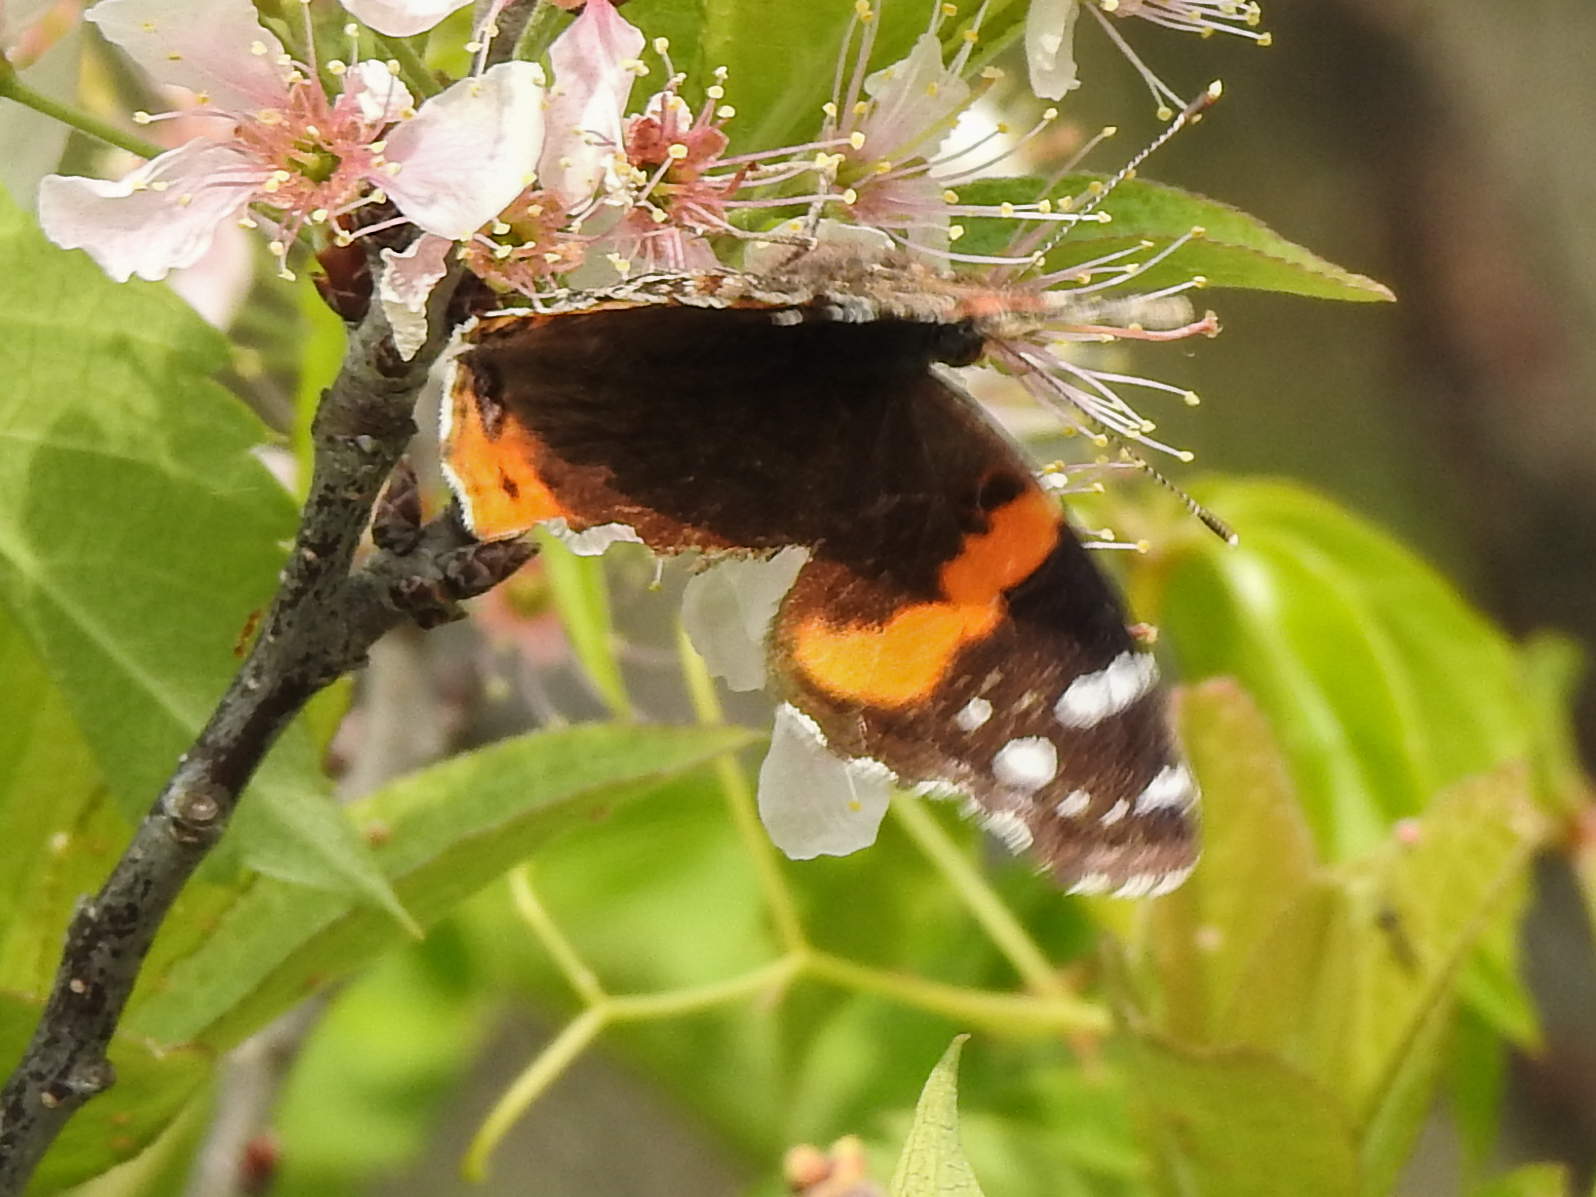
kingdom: Animalia
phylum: Arthropoda
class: Insecta
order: Lepidoptera
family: Nymphalidae
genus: Vanessa
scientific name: Vanessa atalanta
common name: Red admiral
